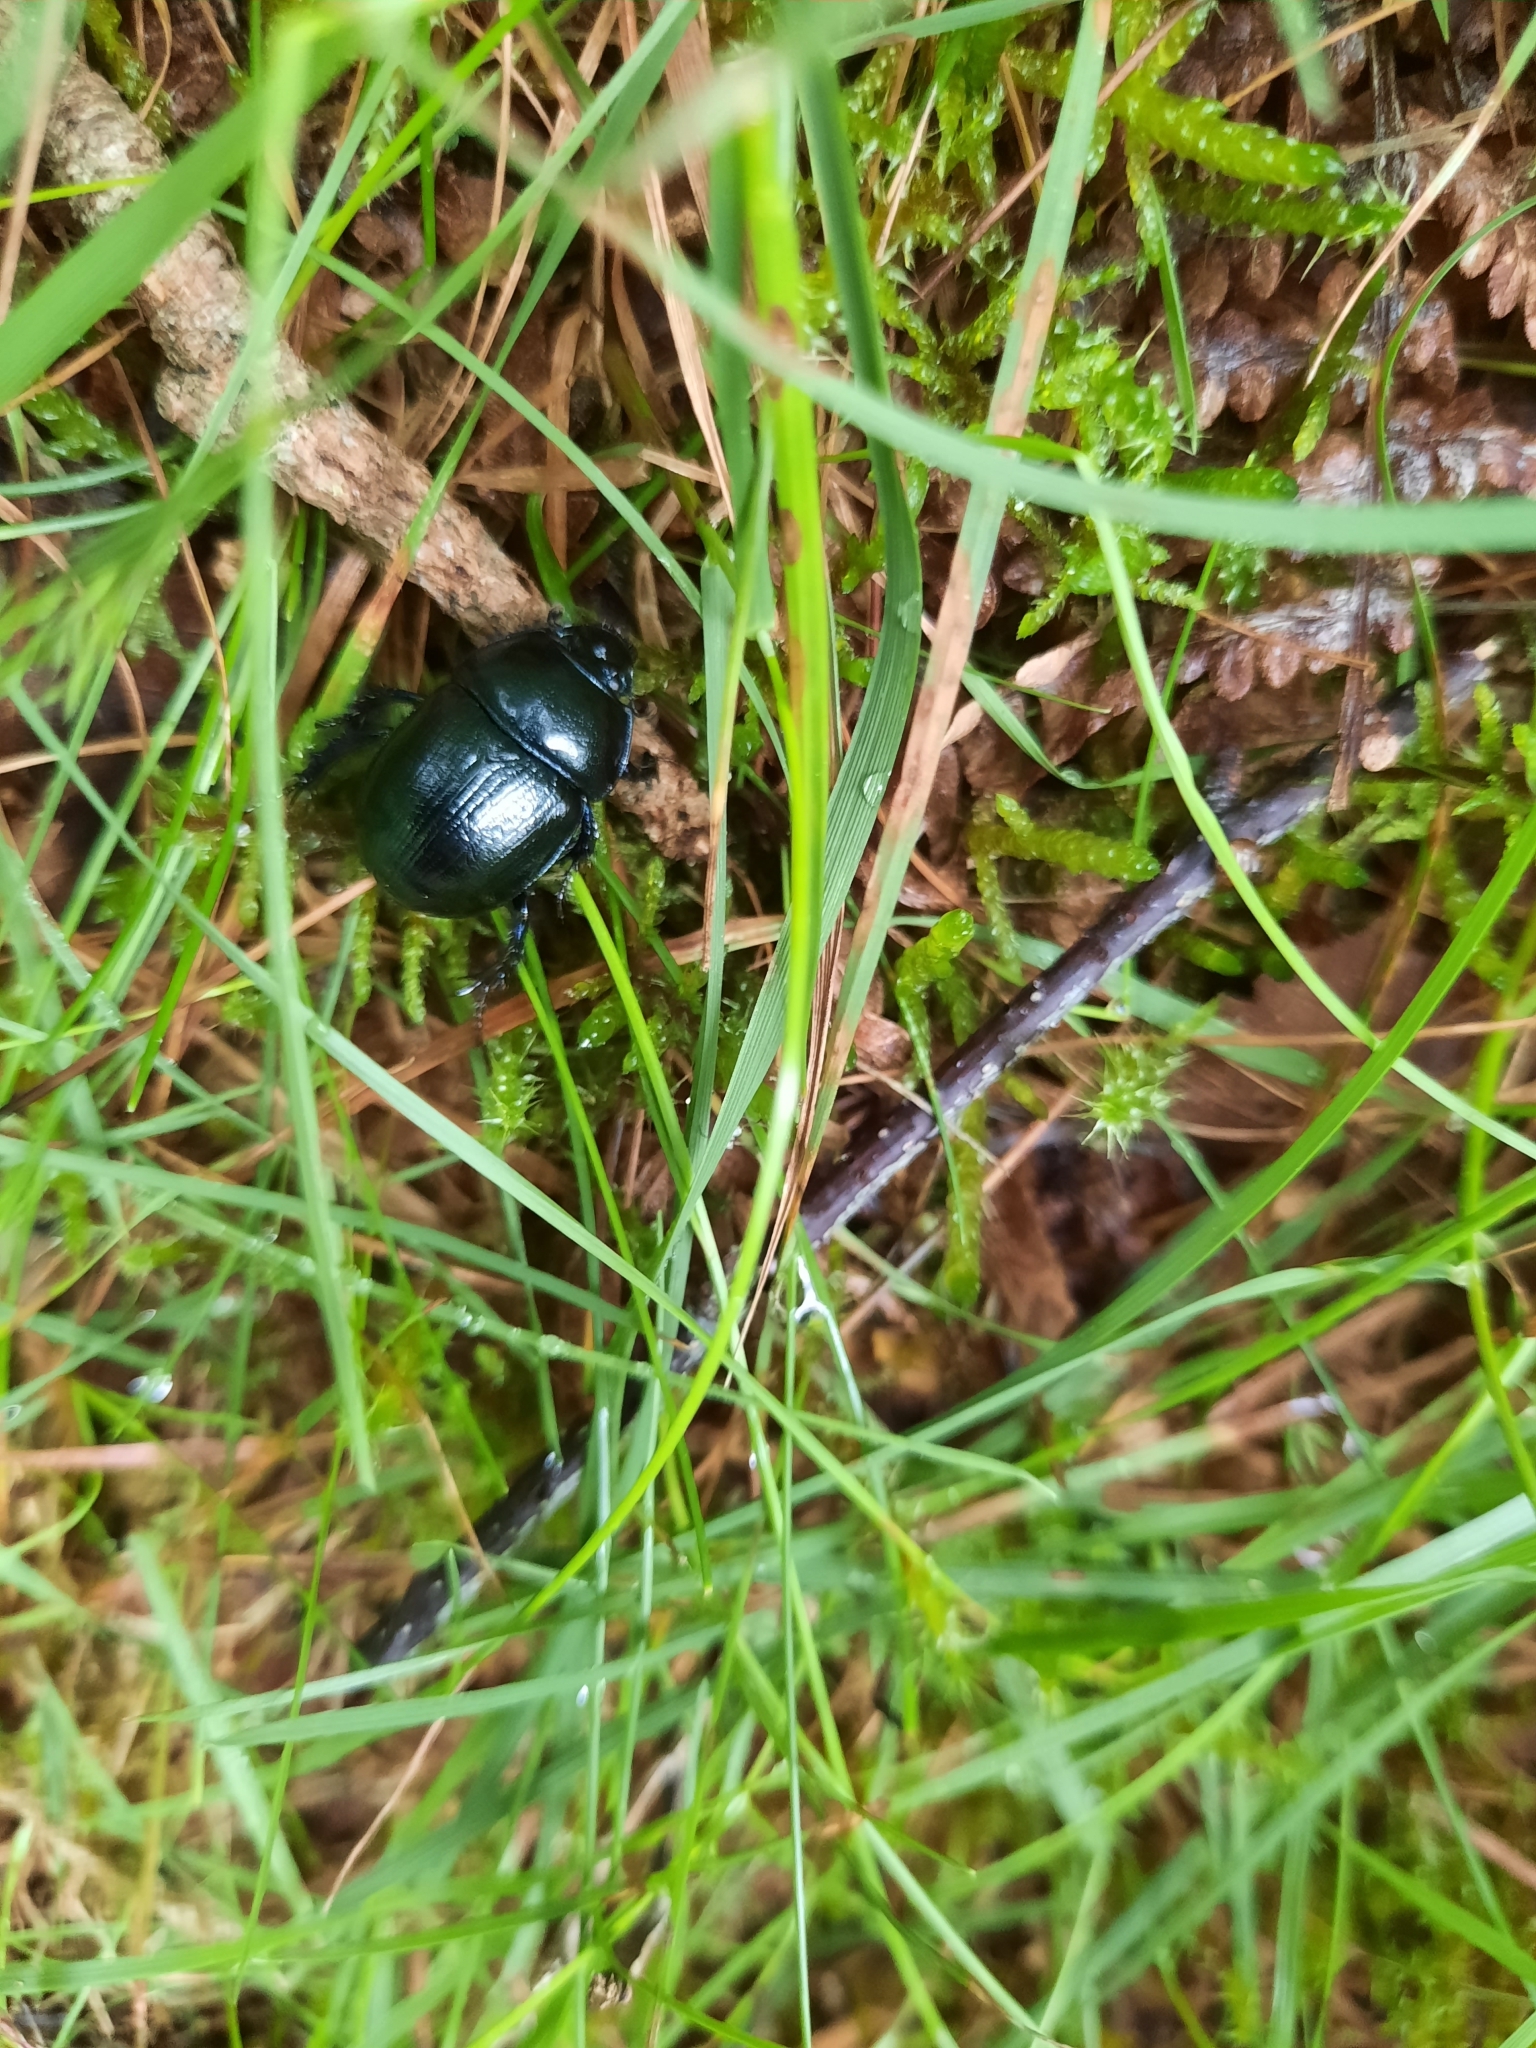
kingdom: Animalia
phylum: Arthropoda
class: Insecta
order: Coleoptera
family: Geotrupidae
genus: Anoplotrupes
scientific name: Anoplotrupes stercorosus
